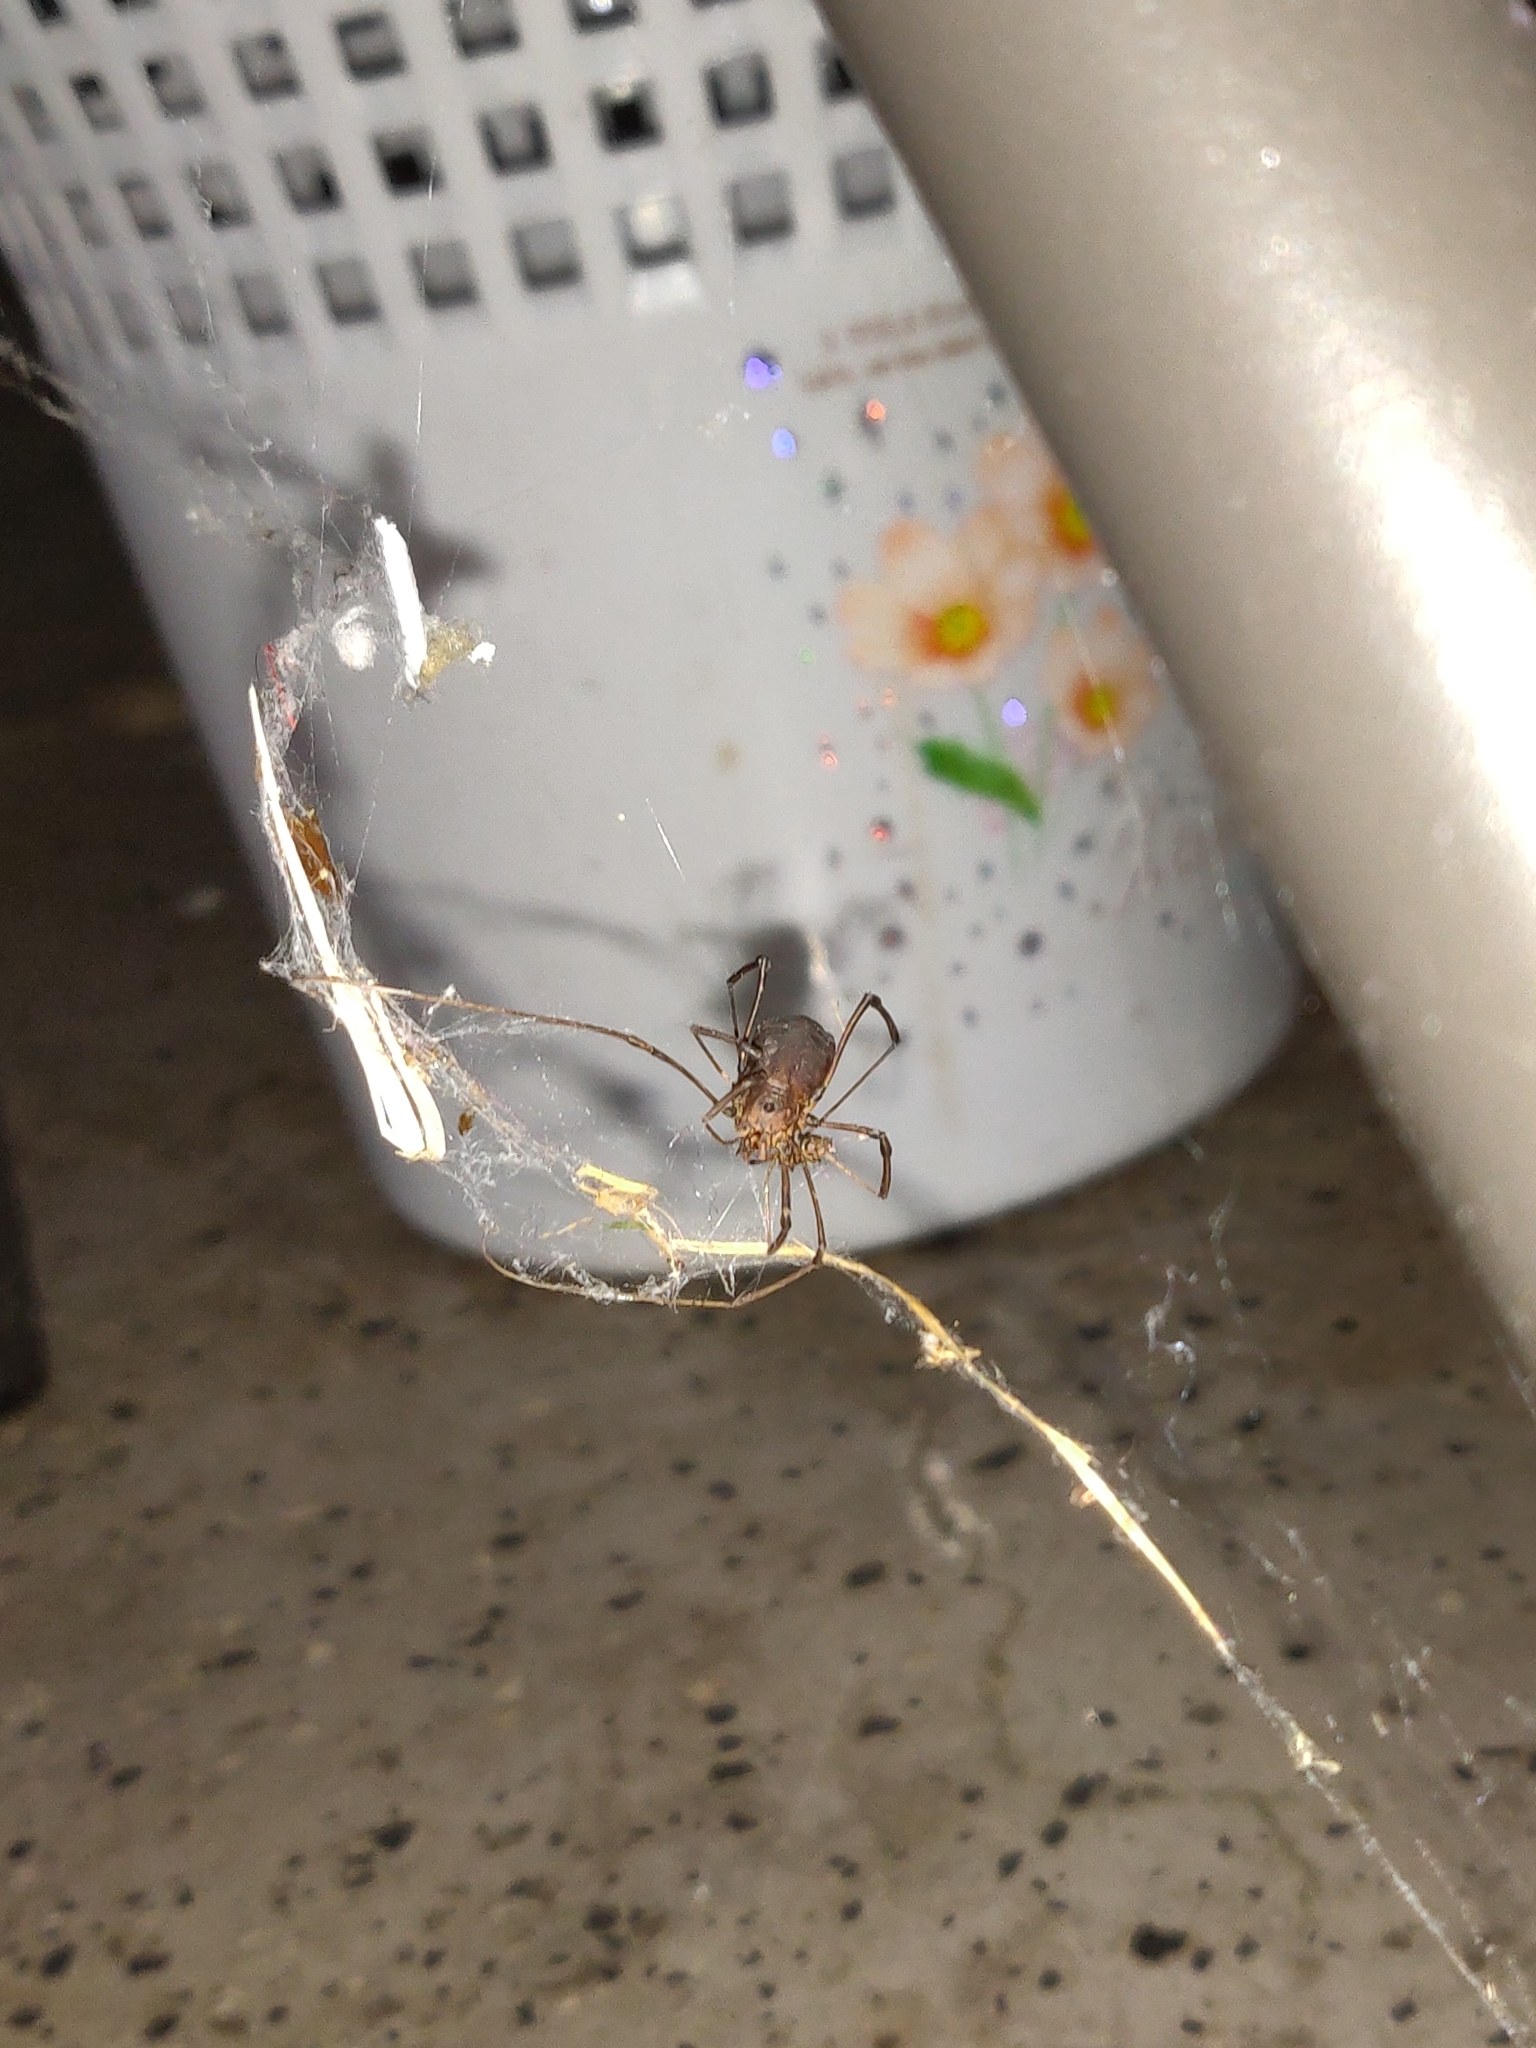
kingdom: Animalia
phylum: Arthropoda
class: Arachnida
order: Opiliones
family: Sclerosomatidae
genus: Hadrobunus
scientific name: Hadrobunus
